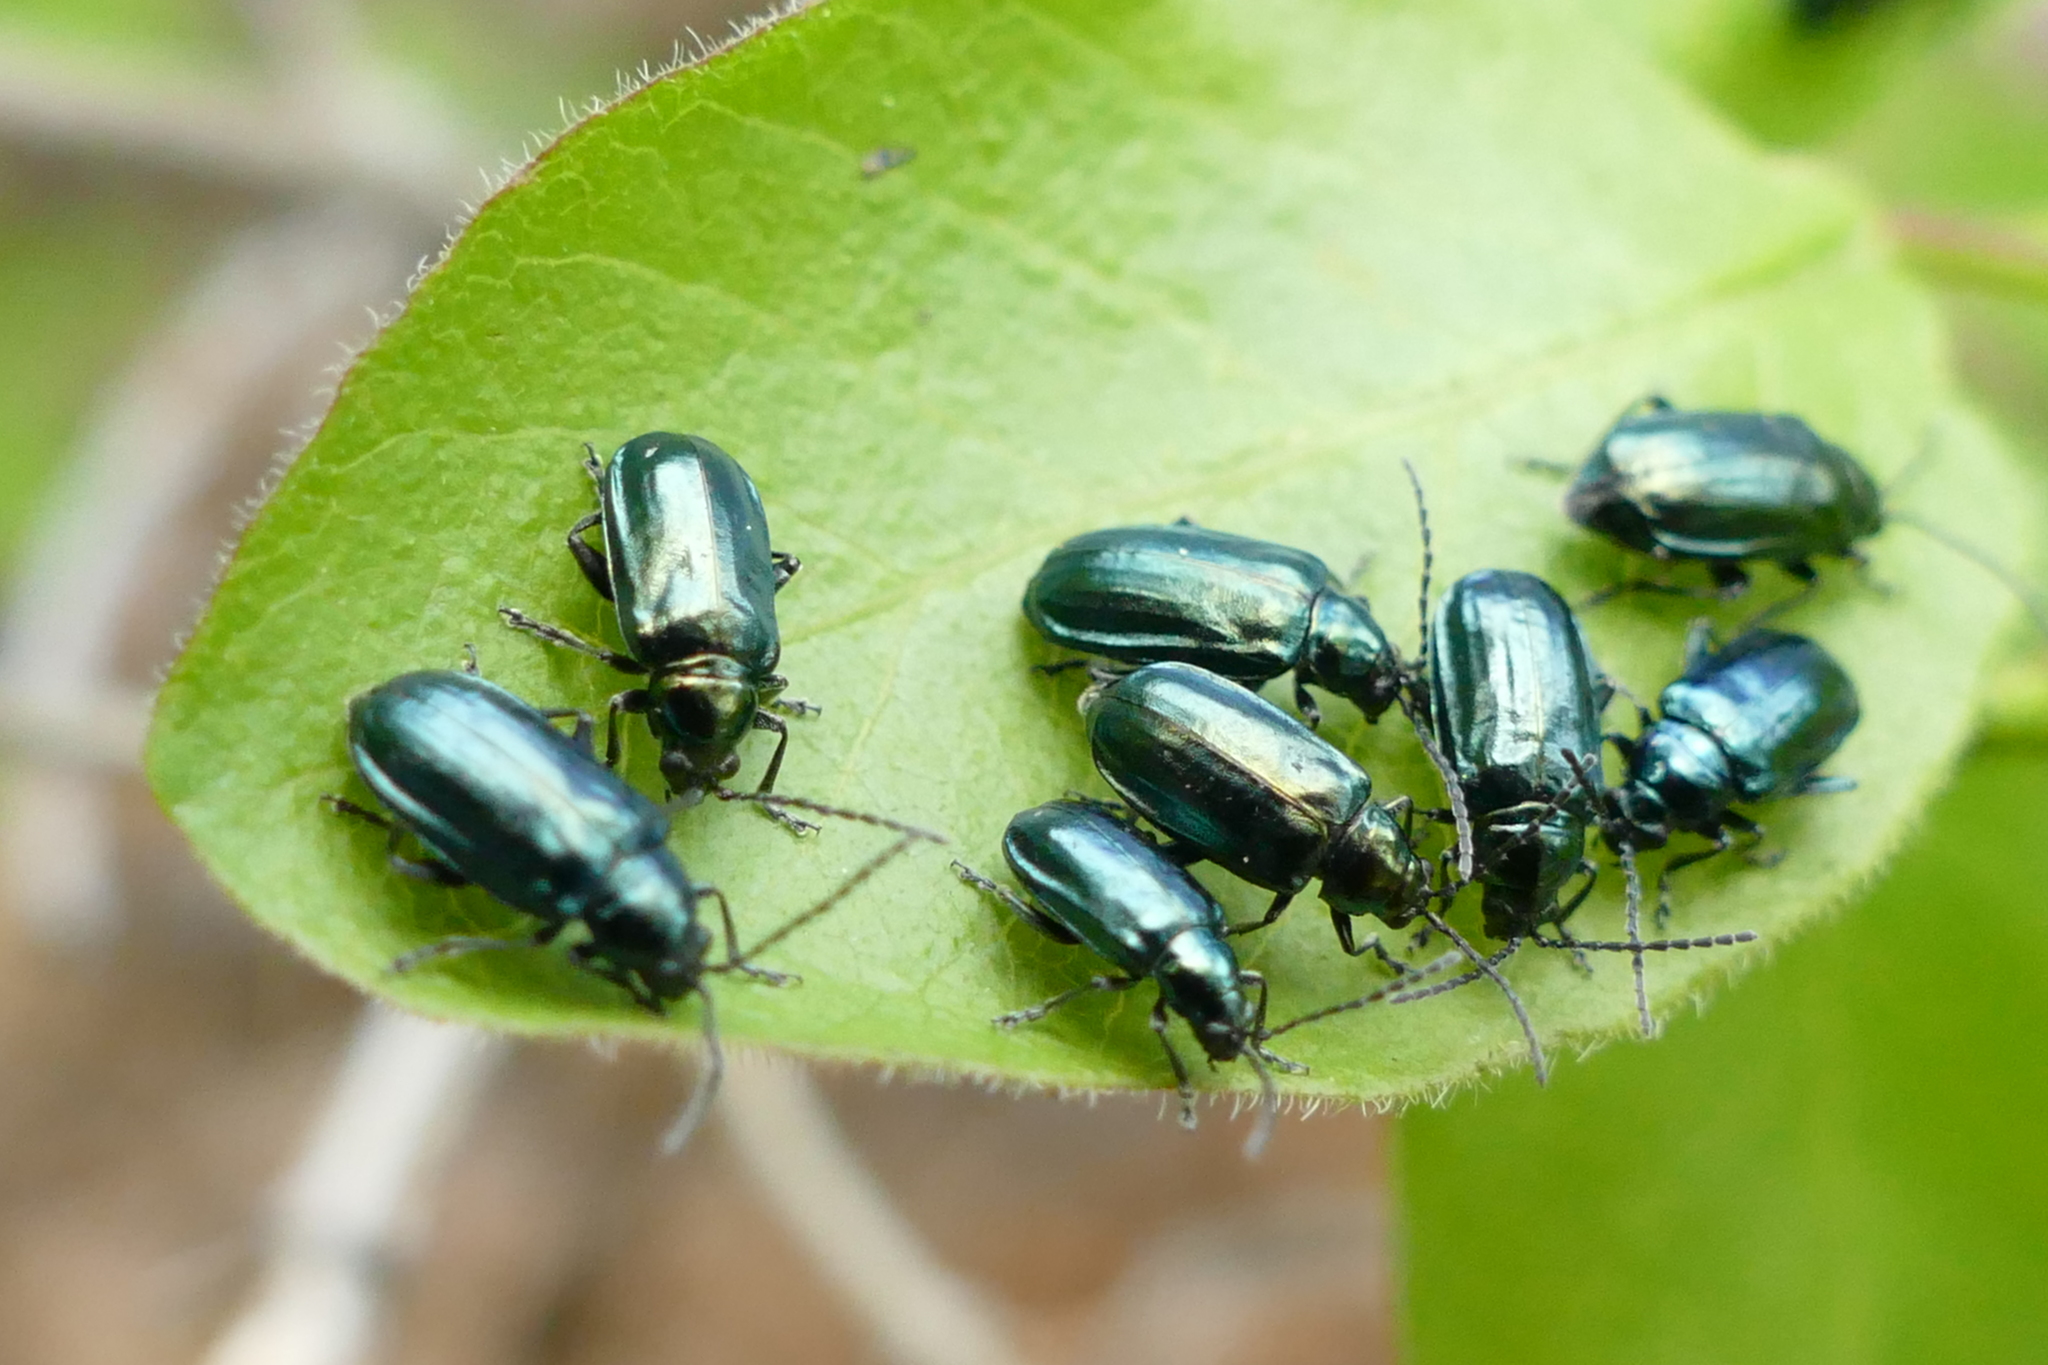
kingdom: Animalia
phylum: Arthropoda
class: Insecta
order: Coleoptera
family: Chrysomelidae
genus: Altica
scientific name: Altica ambiens
